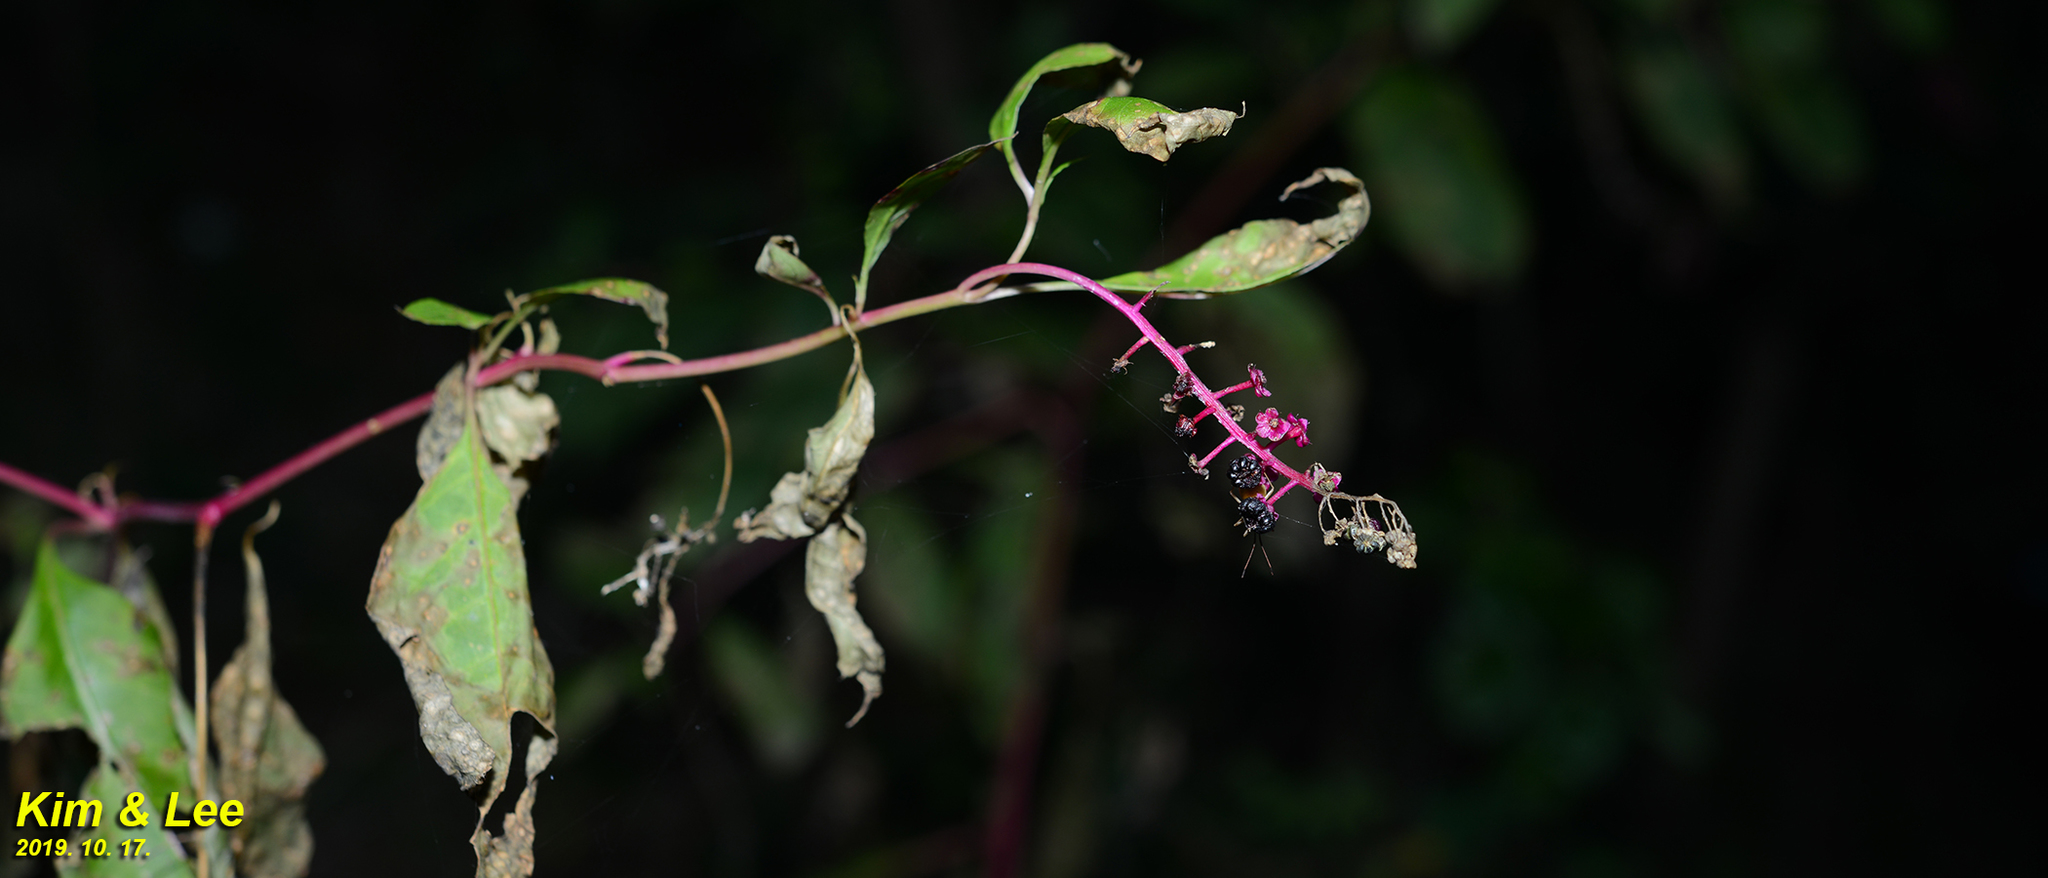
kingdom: Plantae
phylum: Tracheophyta
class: Magnoliopsida
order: Caryophyllales
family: Phytolaccaceae
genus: Phytolacca
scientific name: Phytolacca americana
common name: American pokeweed
